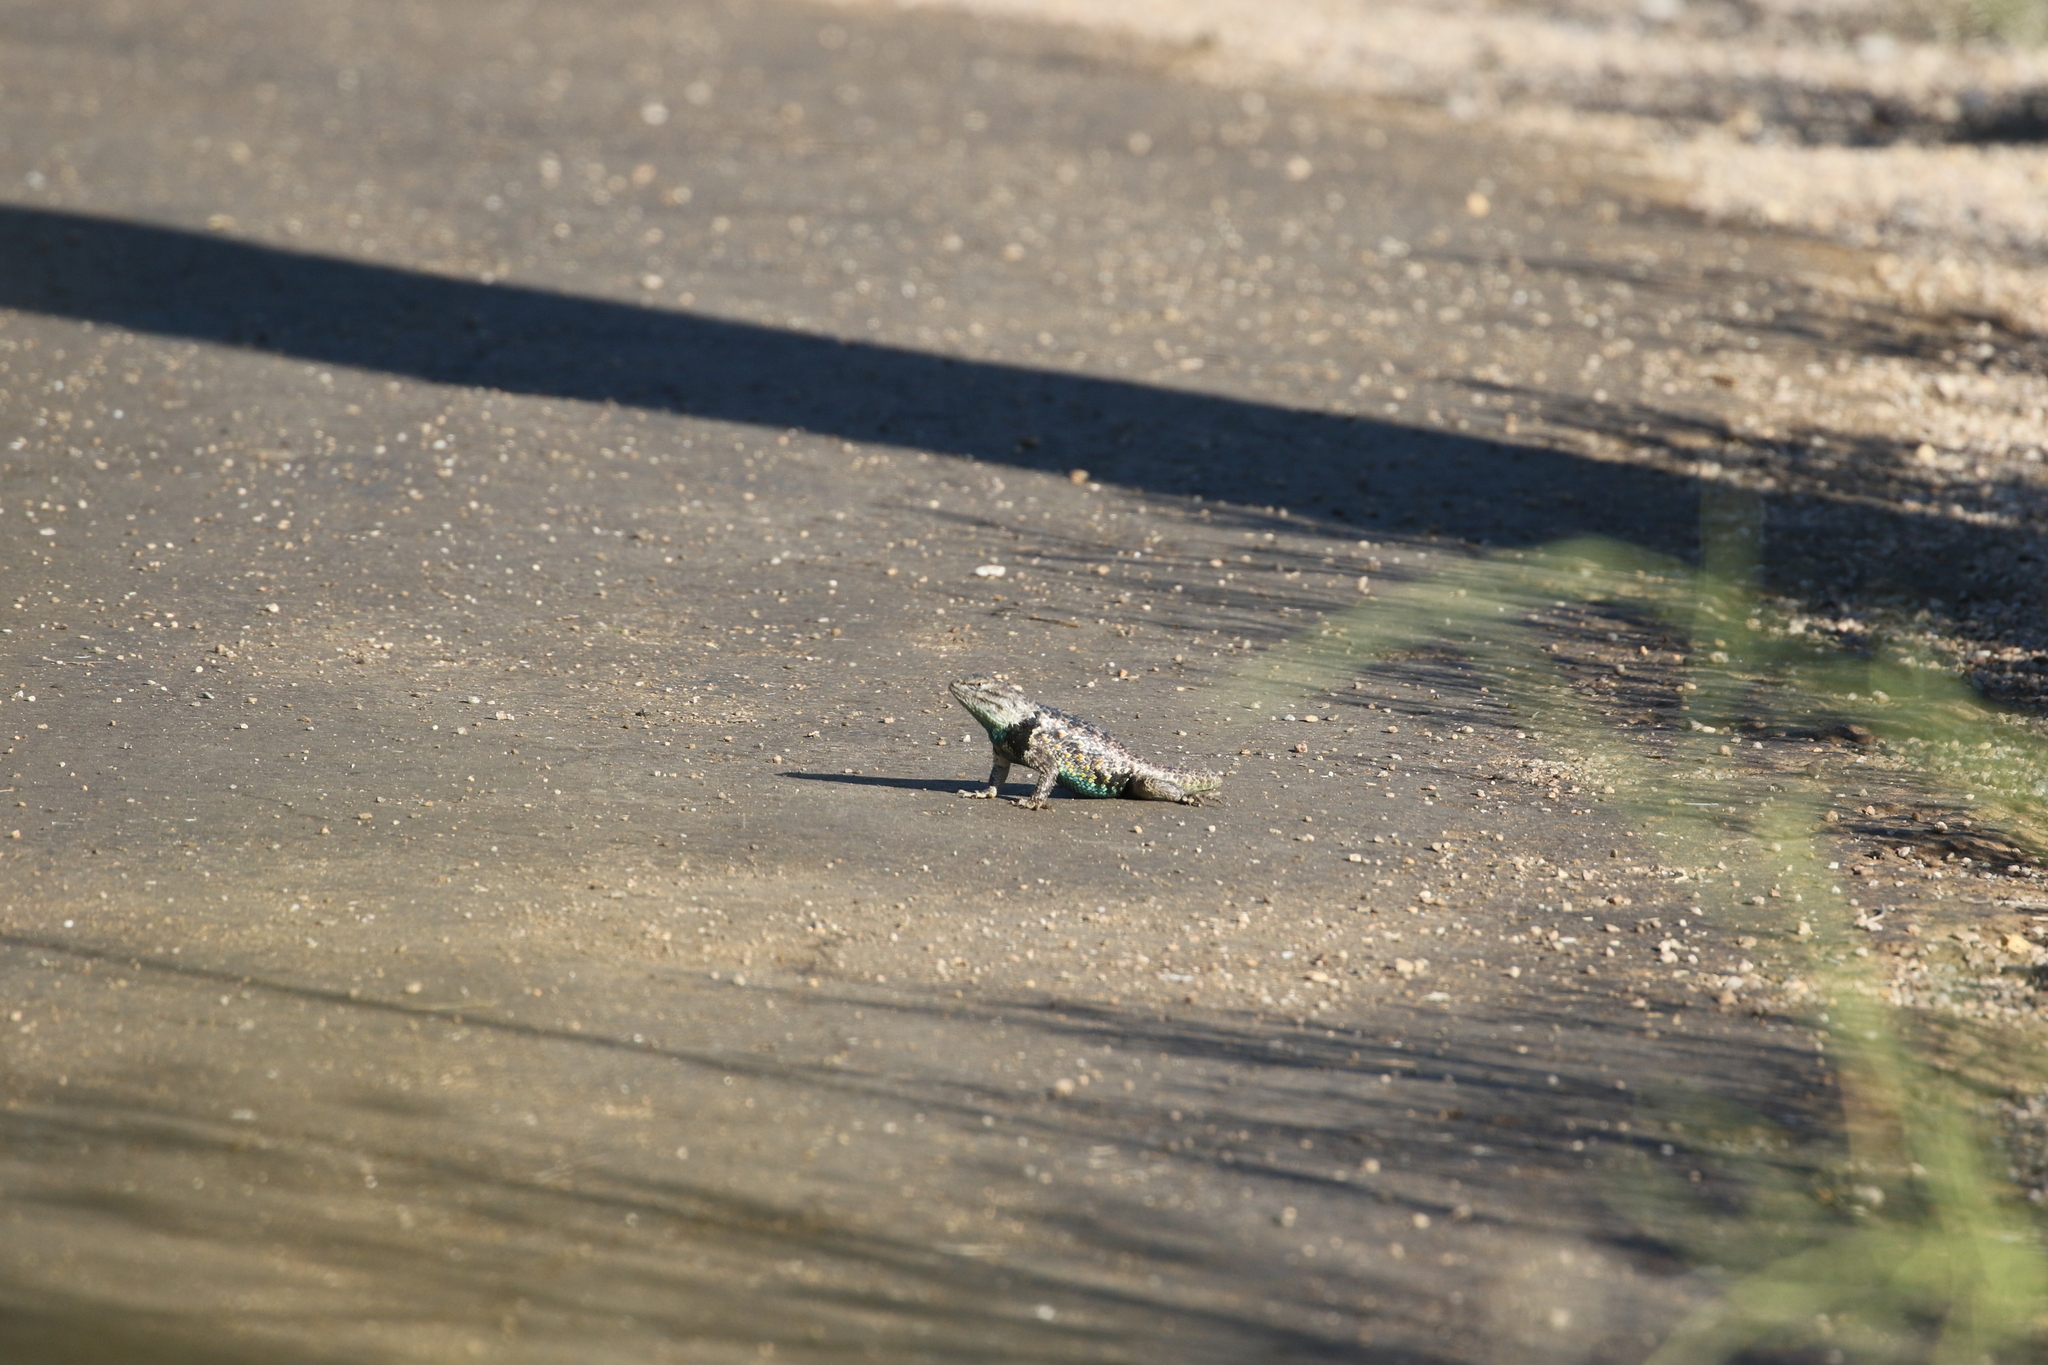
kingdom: Animalia
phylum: Chordata
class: Squamata
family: Phrynosomatidae
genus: Sceloporus
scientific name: Sceloporus magister
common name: Desert spiny lizard
